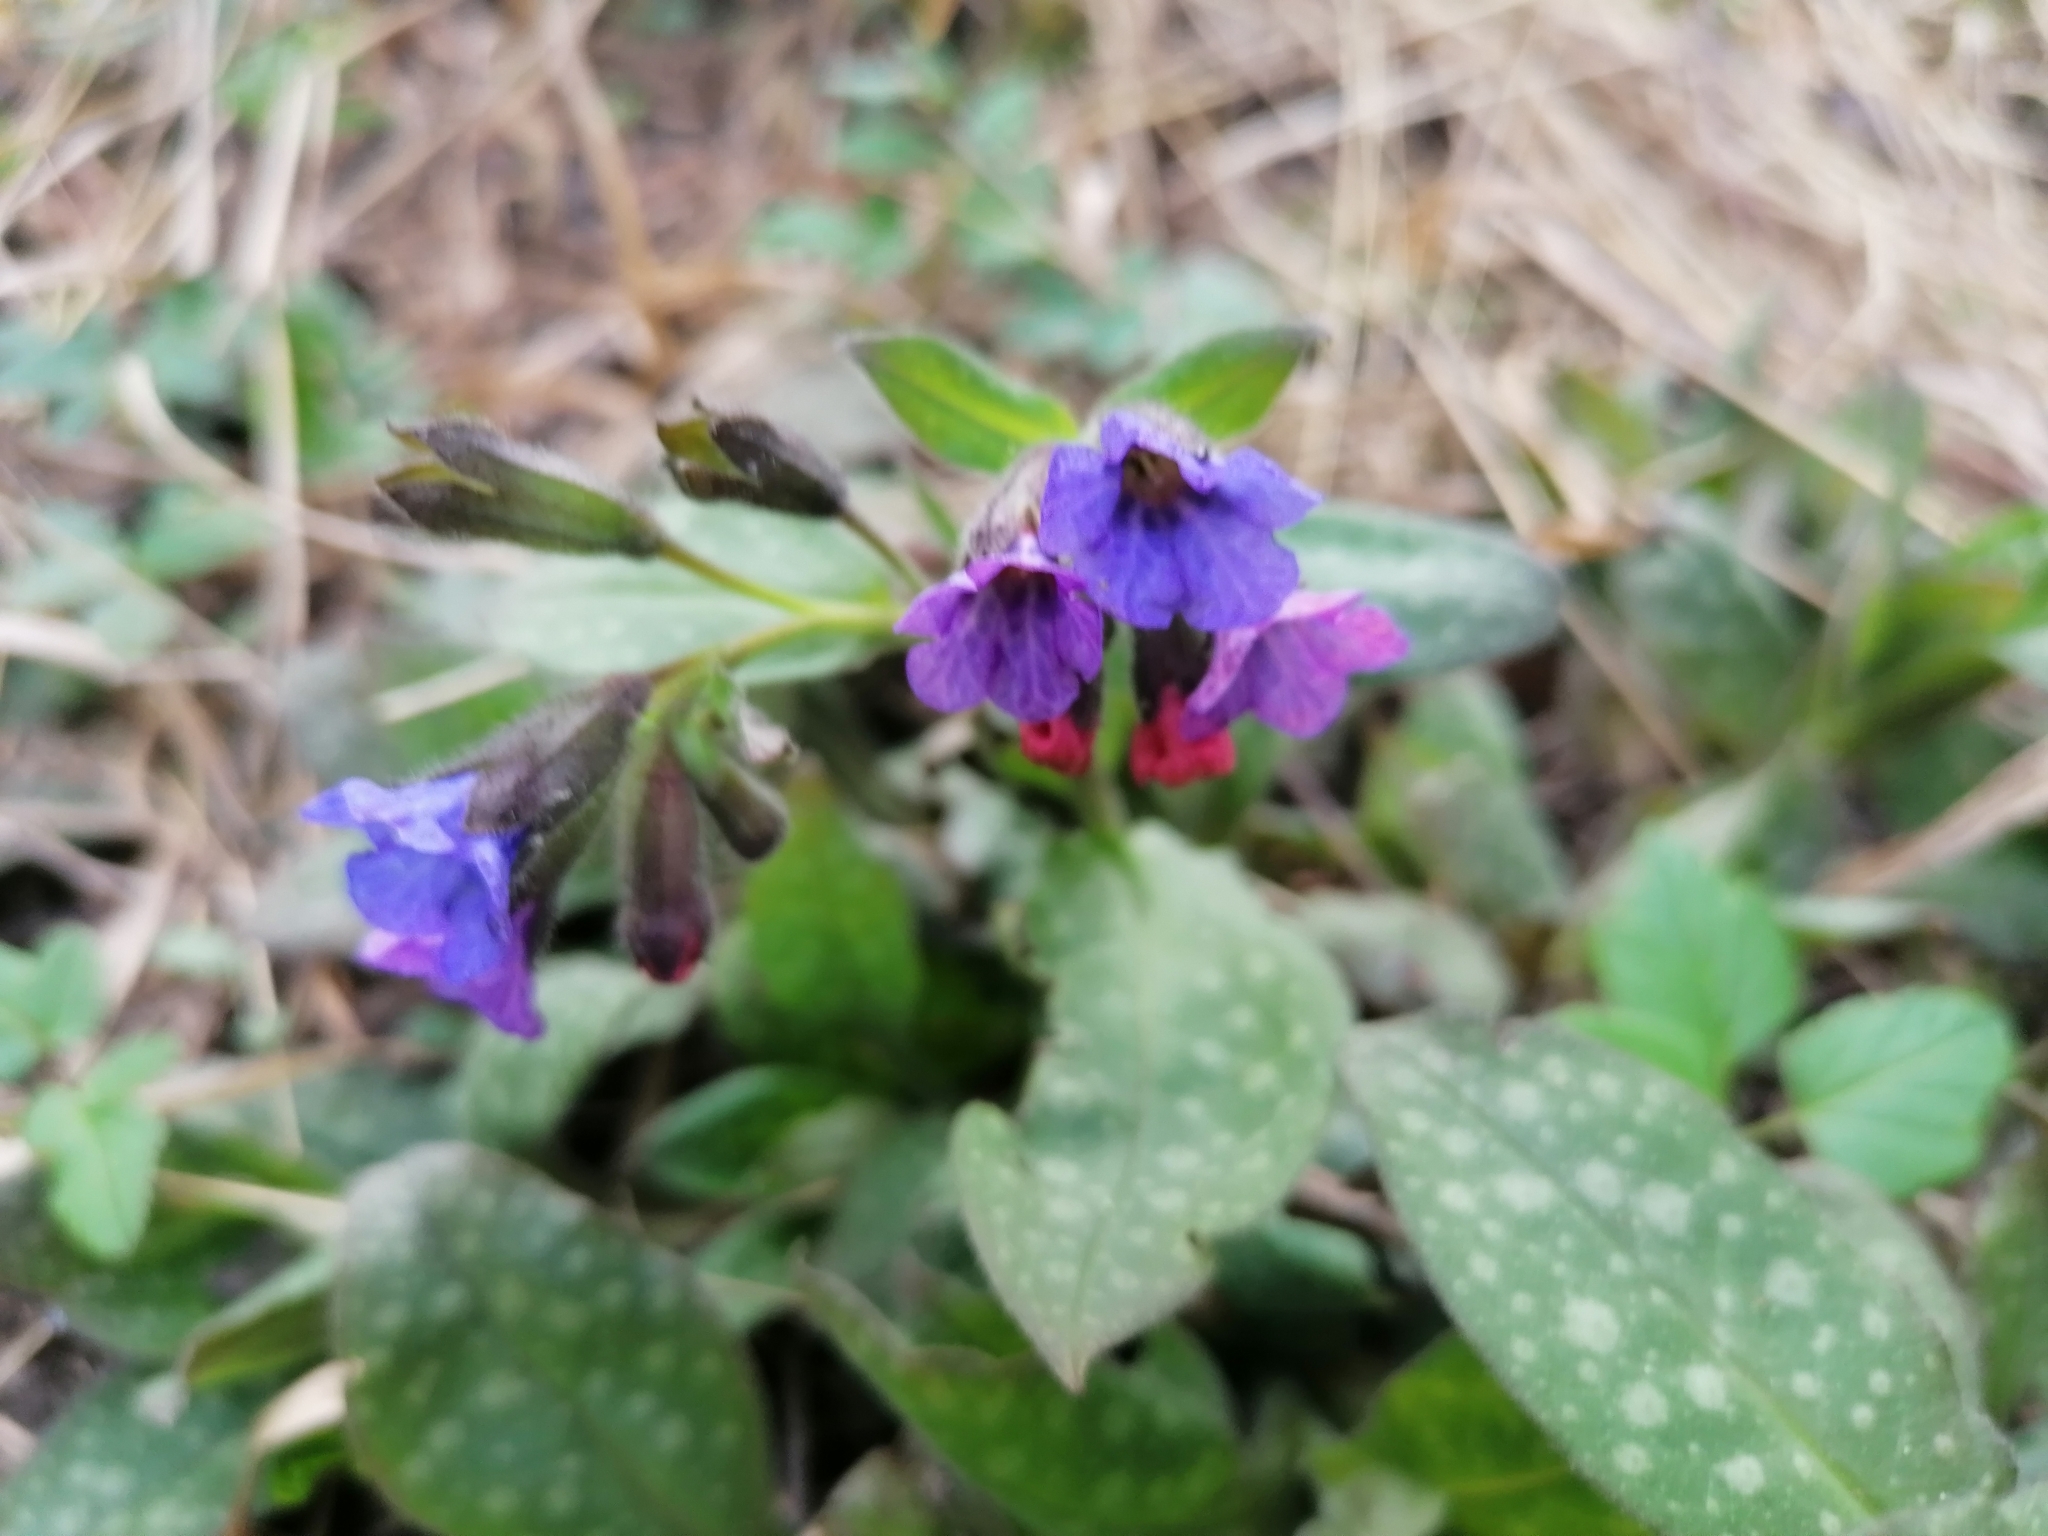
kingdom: Plantae
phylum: Tracheophyta
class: Magnoliopsida
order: Boraginales
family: Boraginaceae
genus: Pulmonaria
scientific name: Pulmonaria officinalis
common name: Lungwort
